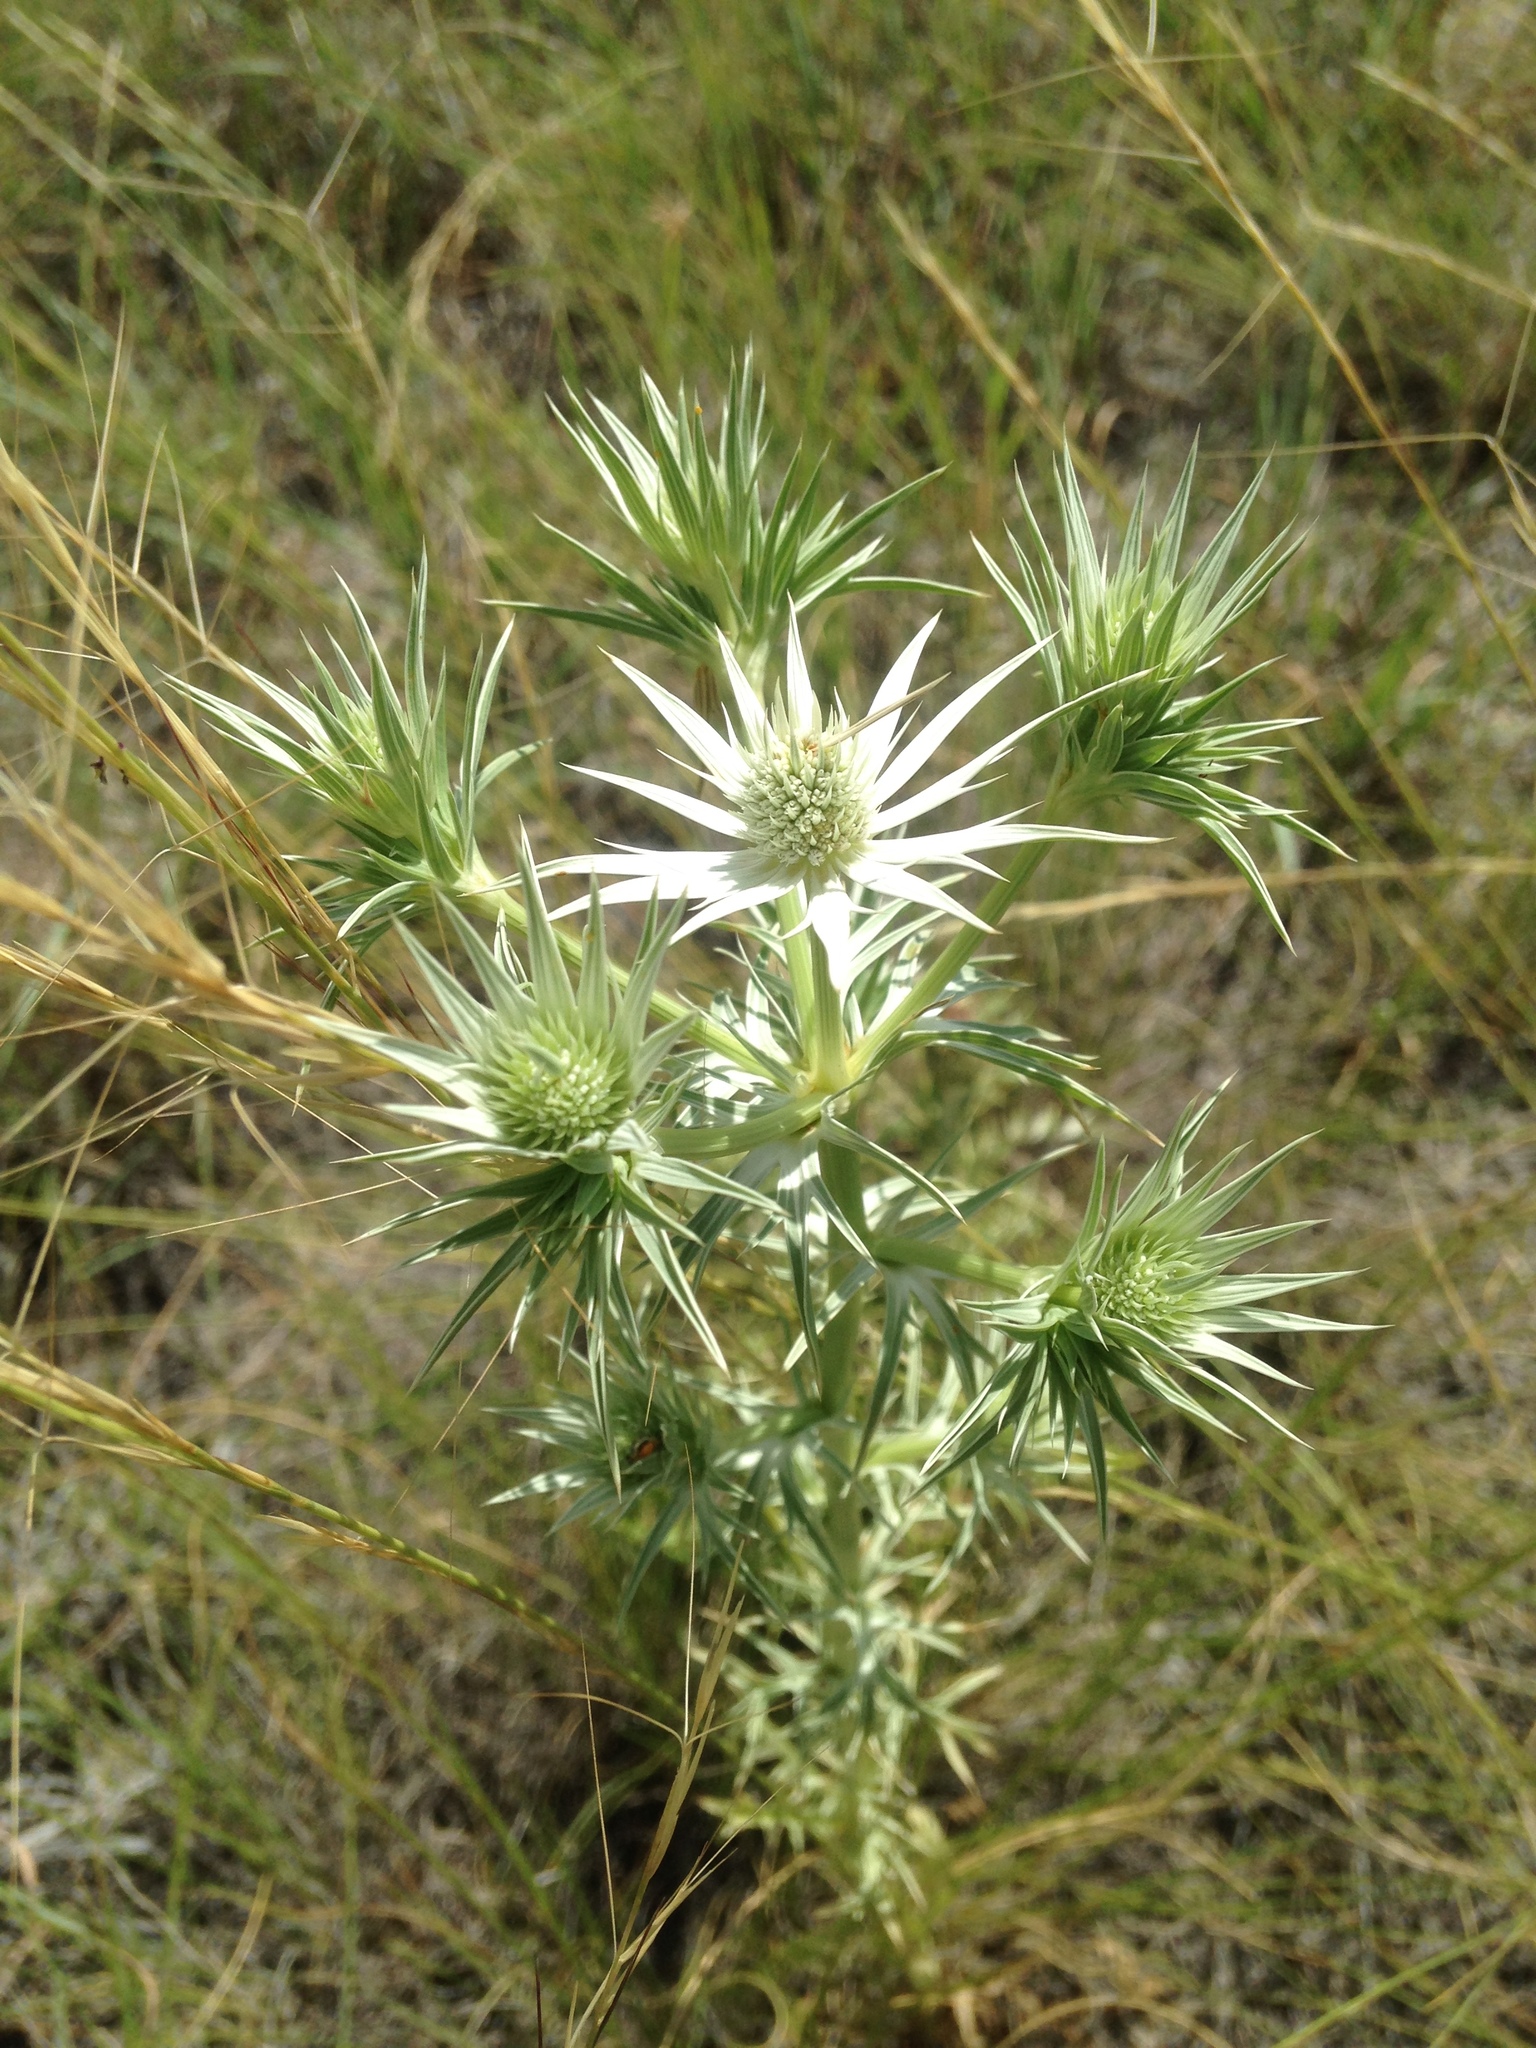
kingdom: Plantae
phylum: Tracheophyta
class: Magnoliopsida
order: Apiales
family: Apiaceae
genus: Eryngium
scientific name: Eryngium heterophyllum
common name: Mexican thistle
